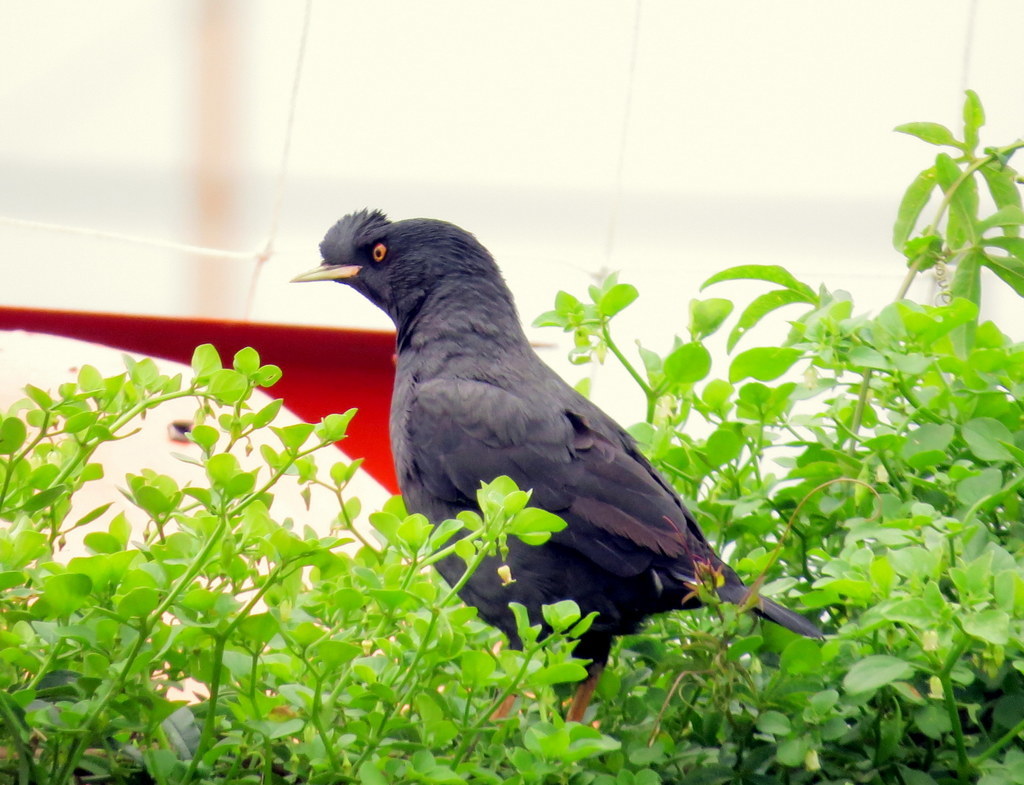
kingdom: Animalia
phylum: Chordata
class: Aves
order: Passeriformes
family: Sturnidae
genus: Acridotheres
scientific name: Acridotheres cristatellus
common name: Crested myna
